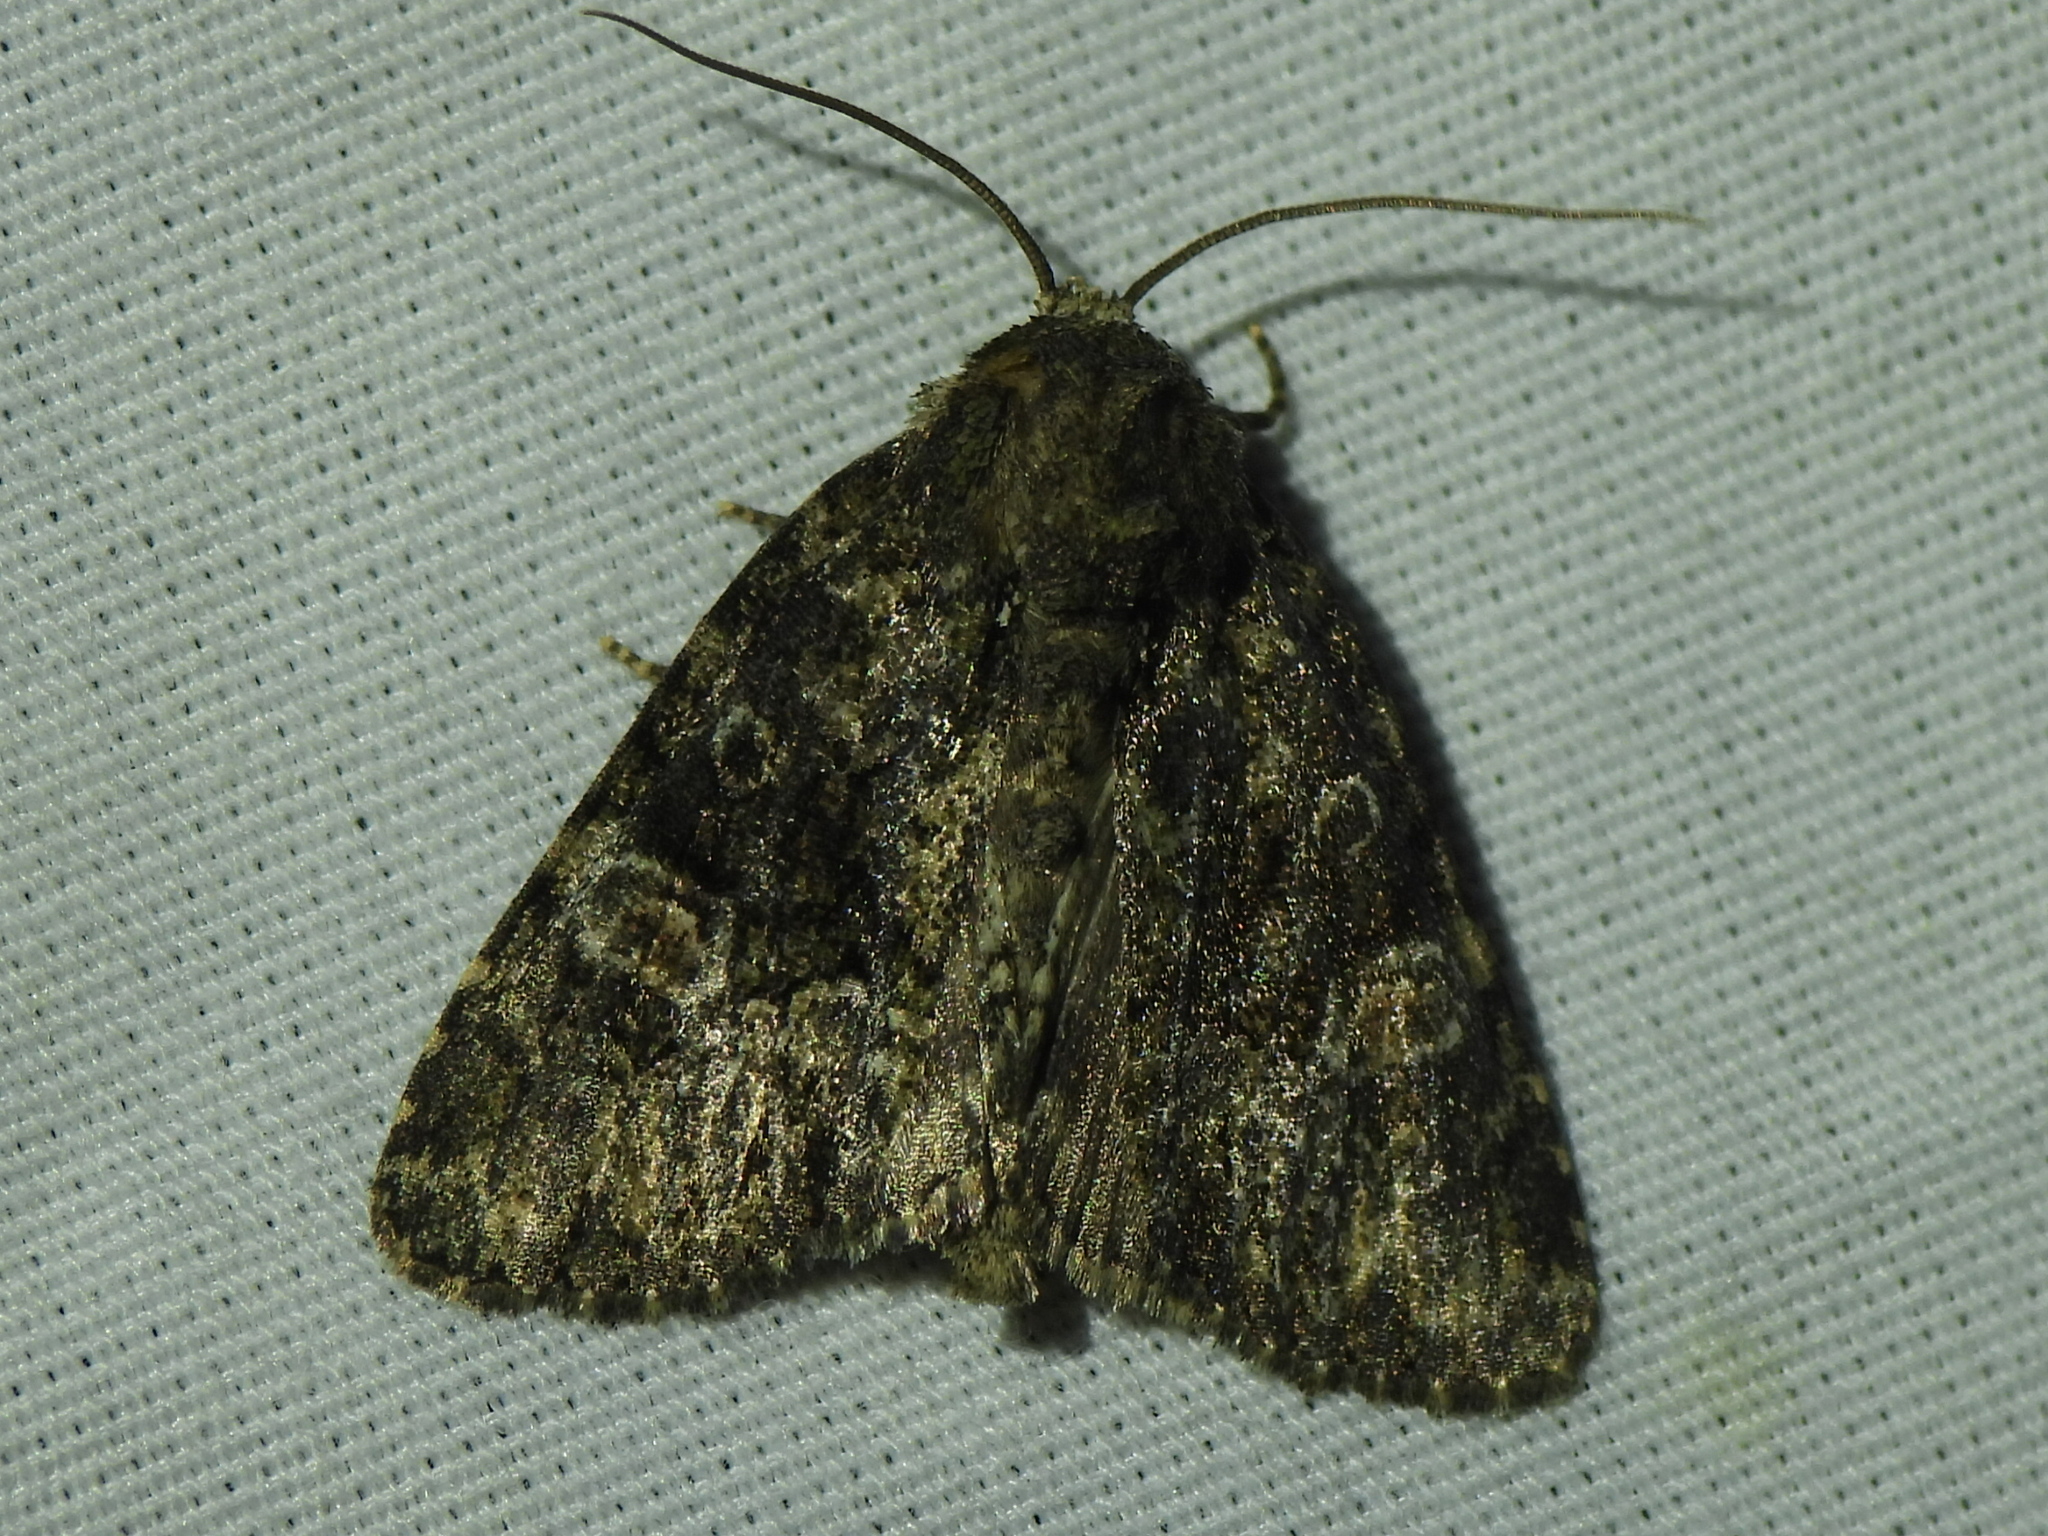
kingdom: Animalia
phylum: Arthropoda
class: Insecta
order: Lepidoptera
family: Noctuidae
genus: Phosphila
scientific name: Phosphila miselioides
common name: Spotted phosphila moth
